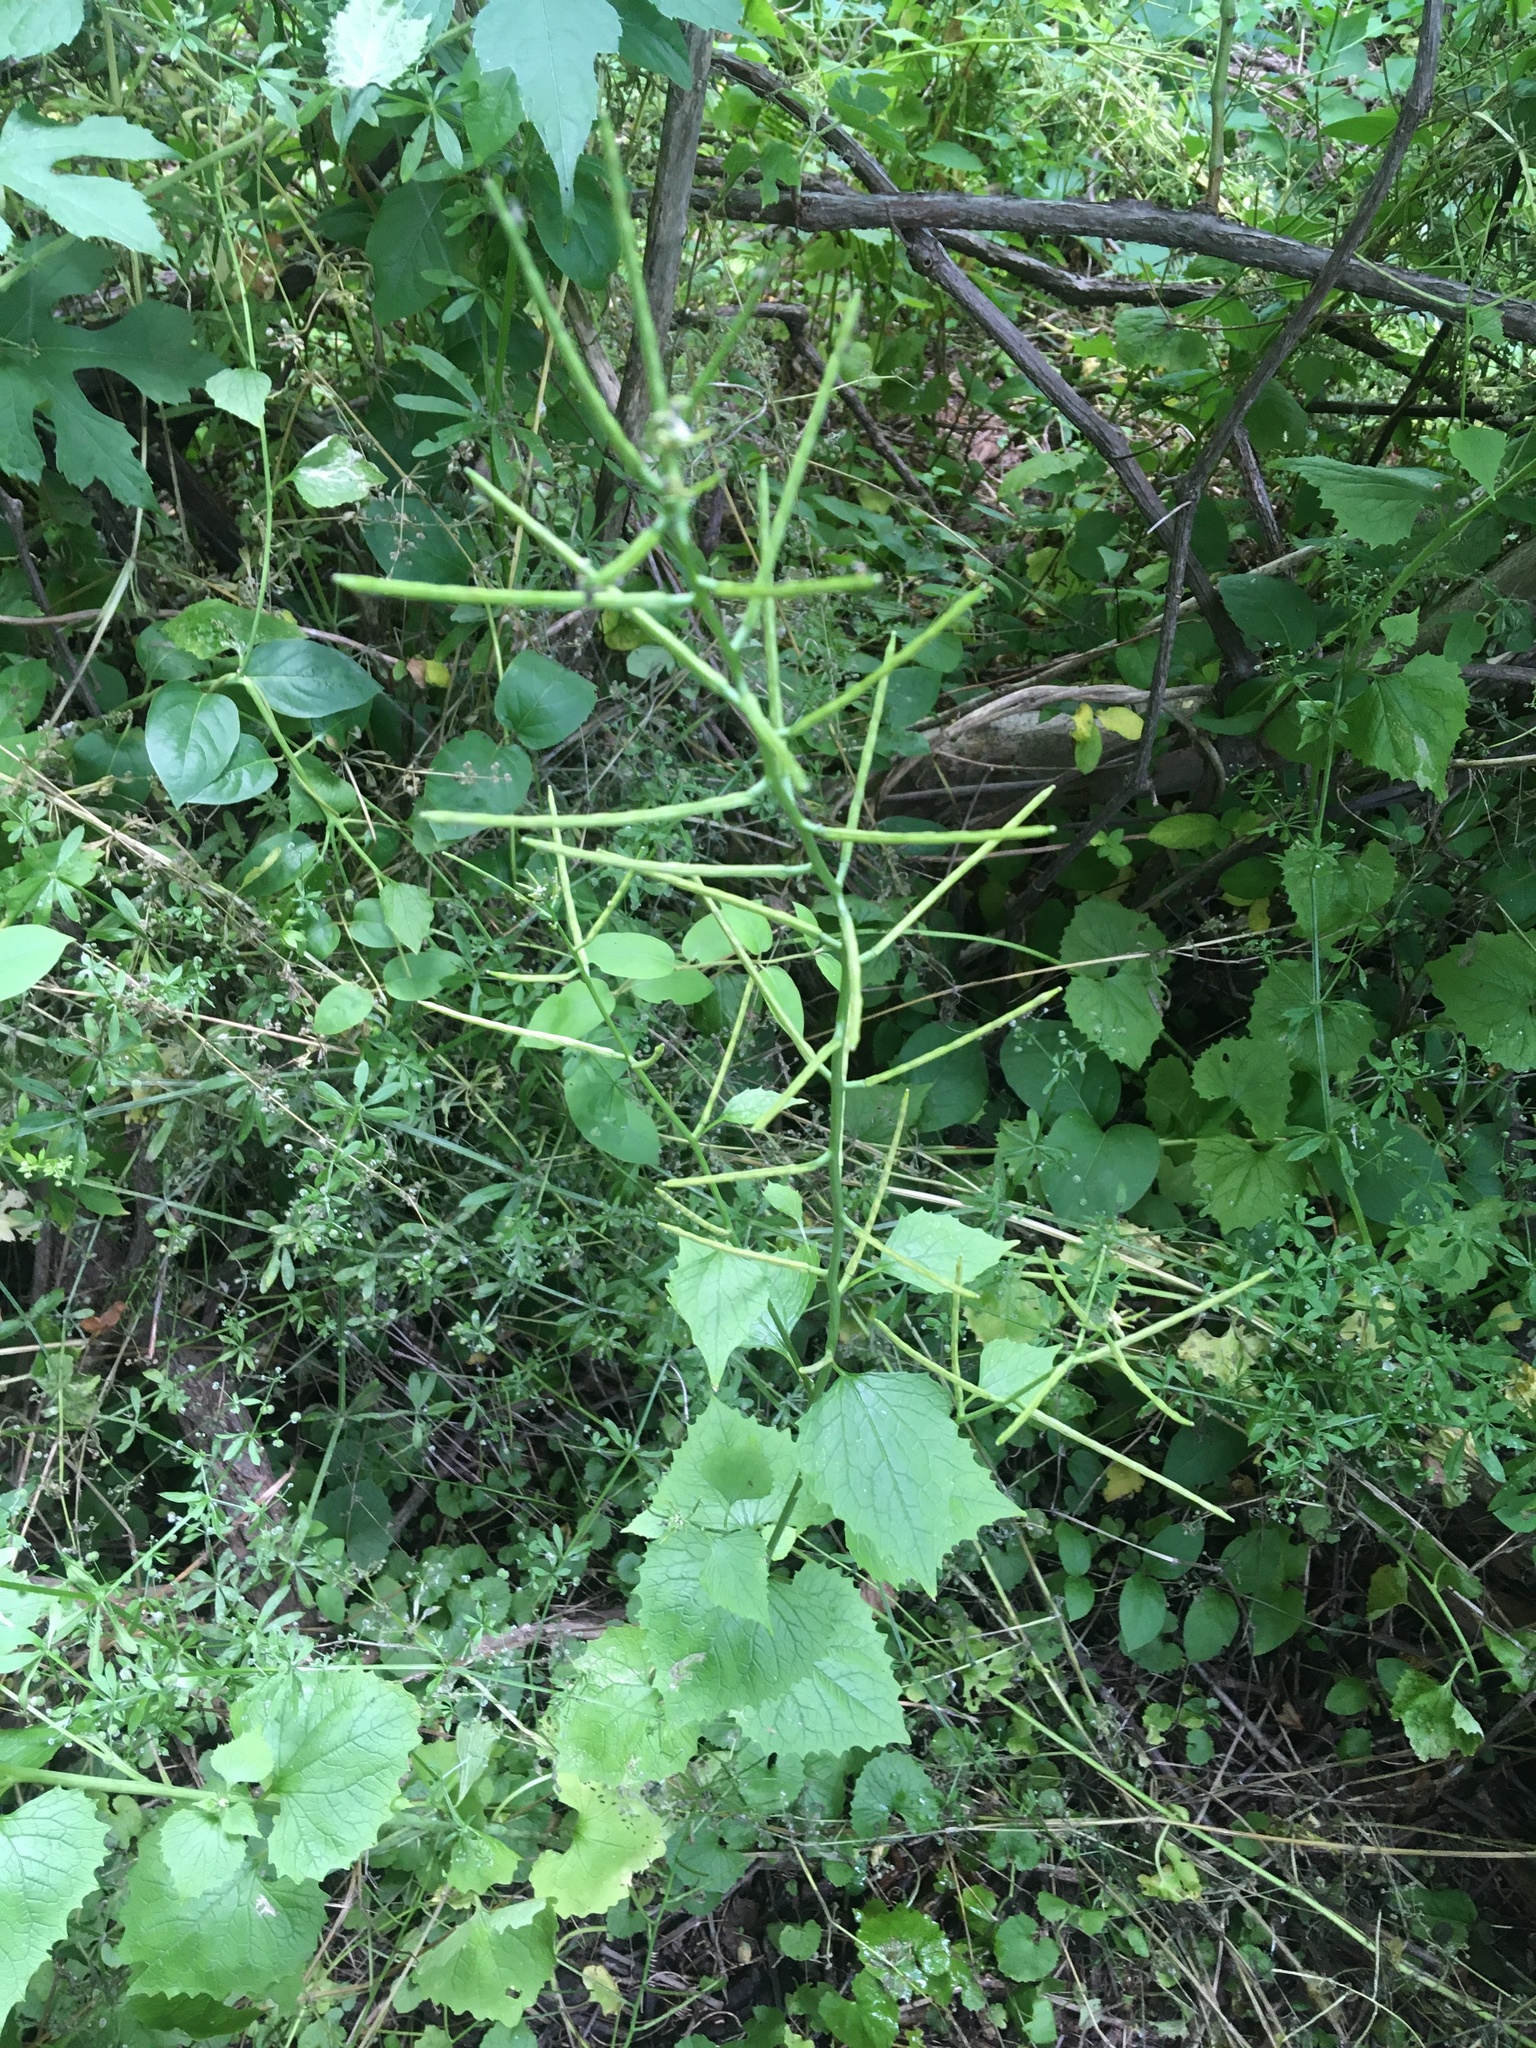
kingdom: Plantae
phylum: Tracheophyta
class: Magnoliopsida
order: Brassicales
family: Brassicaceae
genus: Alliaria
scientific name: Alliaria petiolata
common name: Garlic mustard
